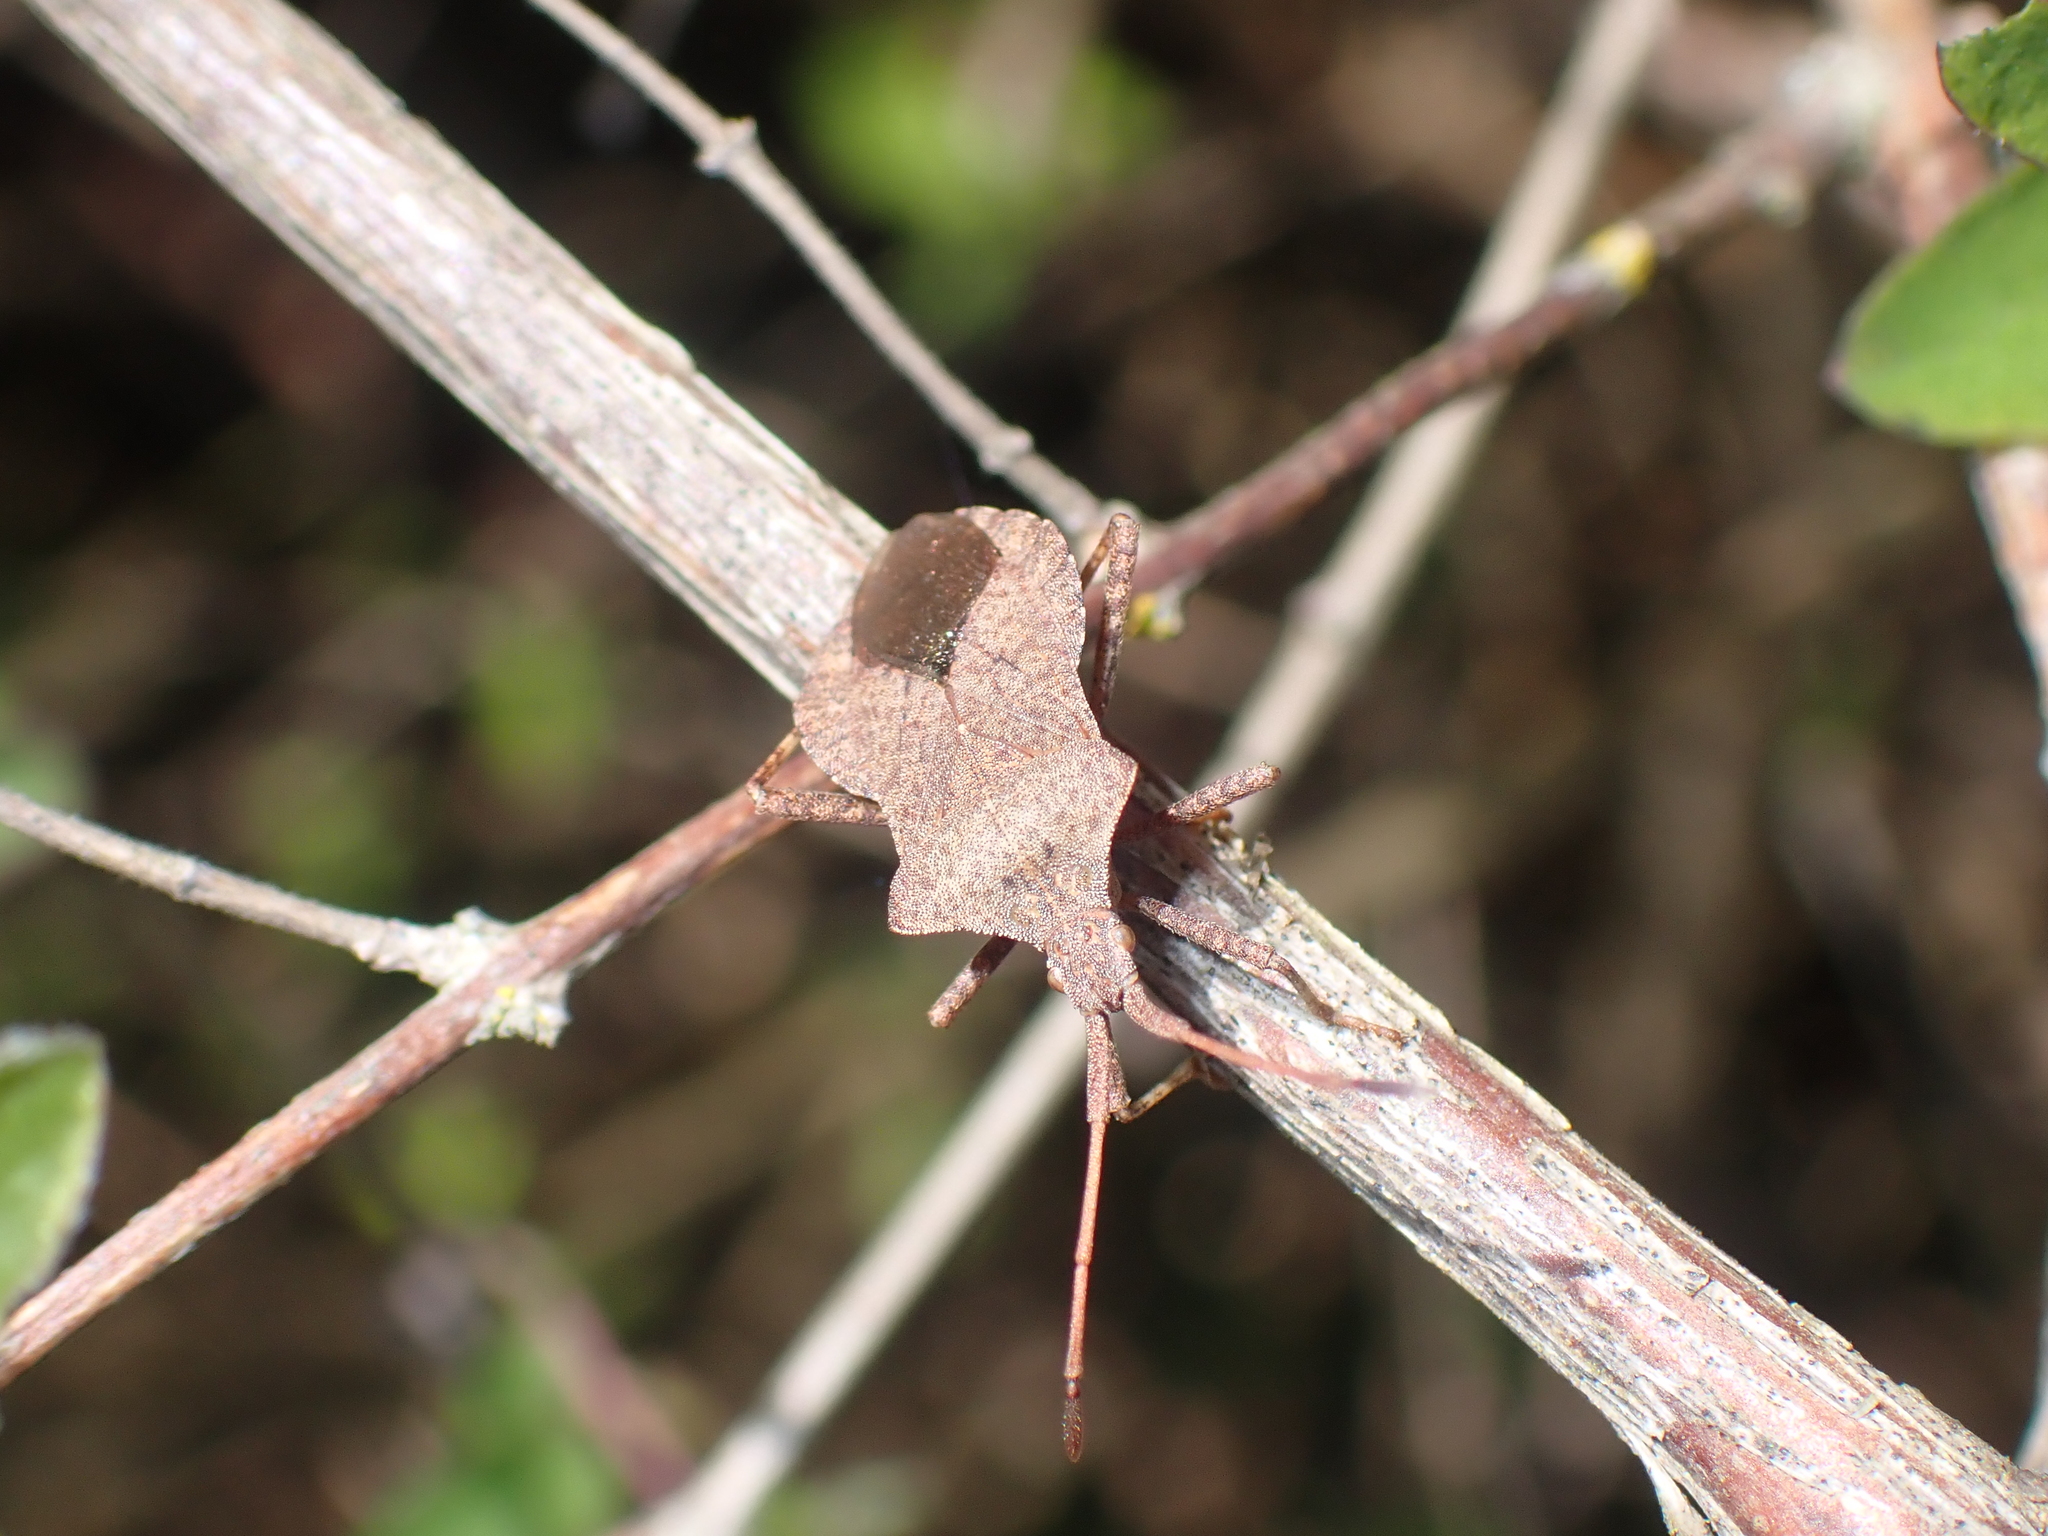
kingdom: Animalia
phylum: Arthropoda
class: Insecta
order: Hemiptera
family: Coreidae
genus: Coreus
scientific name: Coreus marginatus
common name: Dock bug
